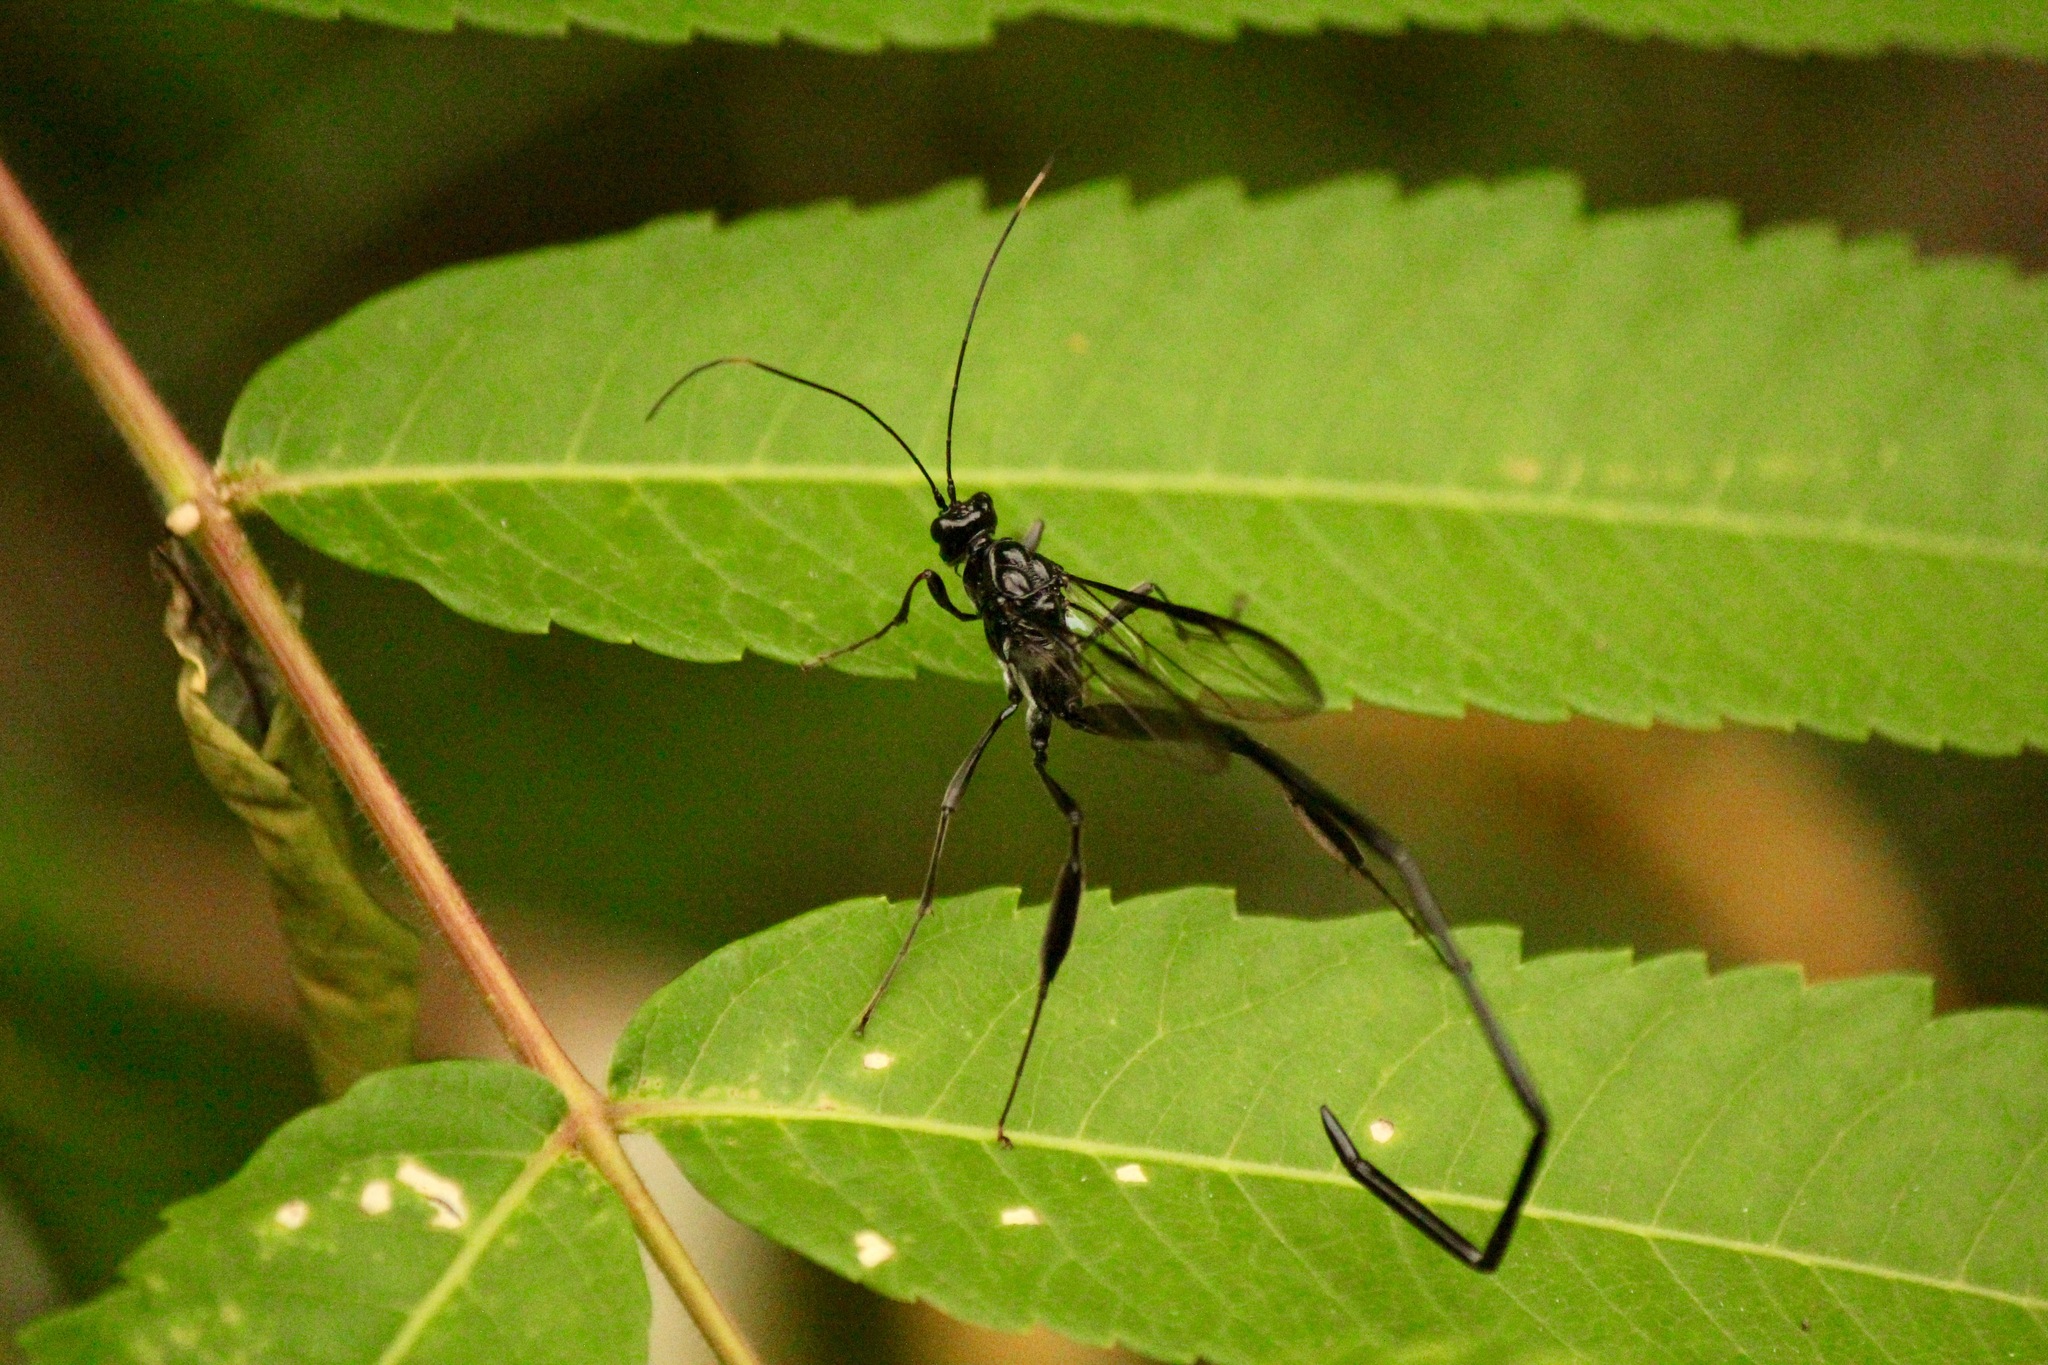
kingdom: Animalia
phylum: Arthropoda
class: Insecta
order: Hymenoptera
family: Pelecinidae
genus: Pelecinus
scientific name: Pelecinus polyturator
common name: American pelecinid wasp
